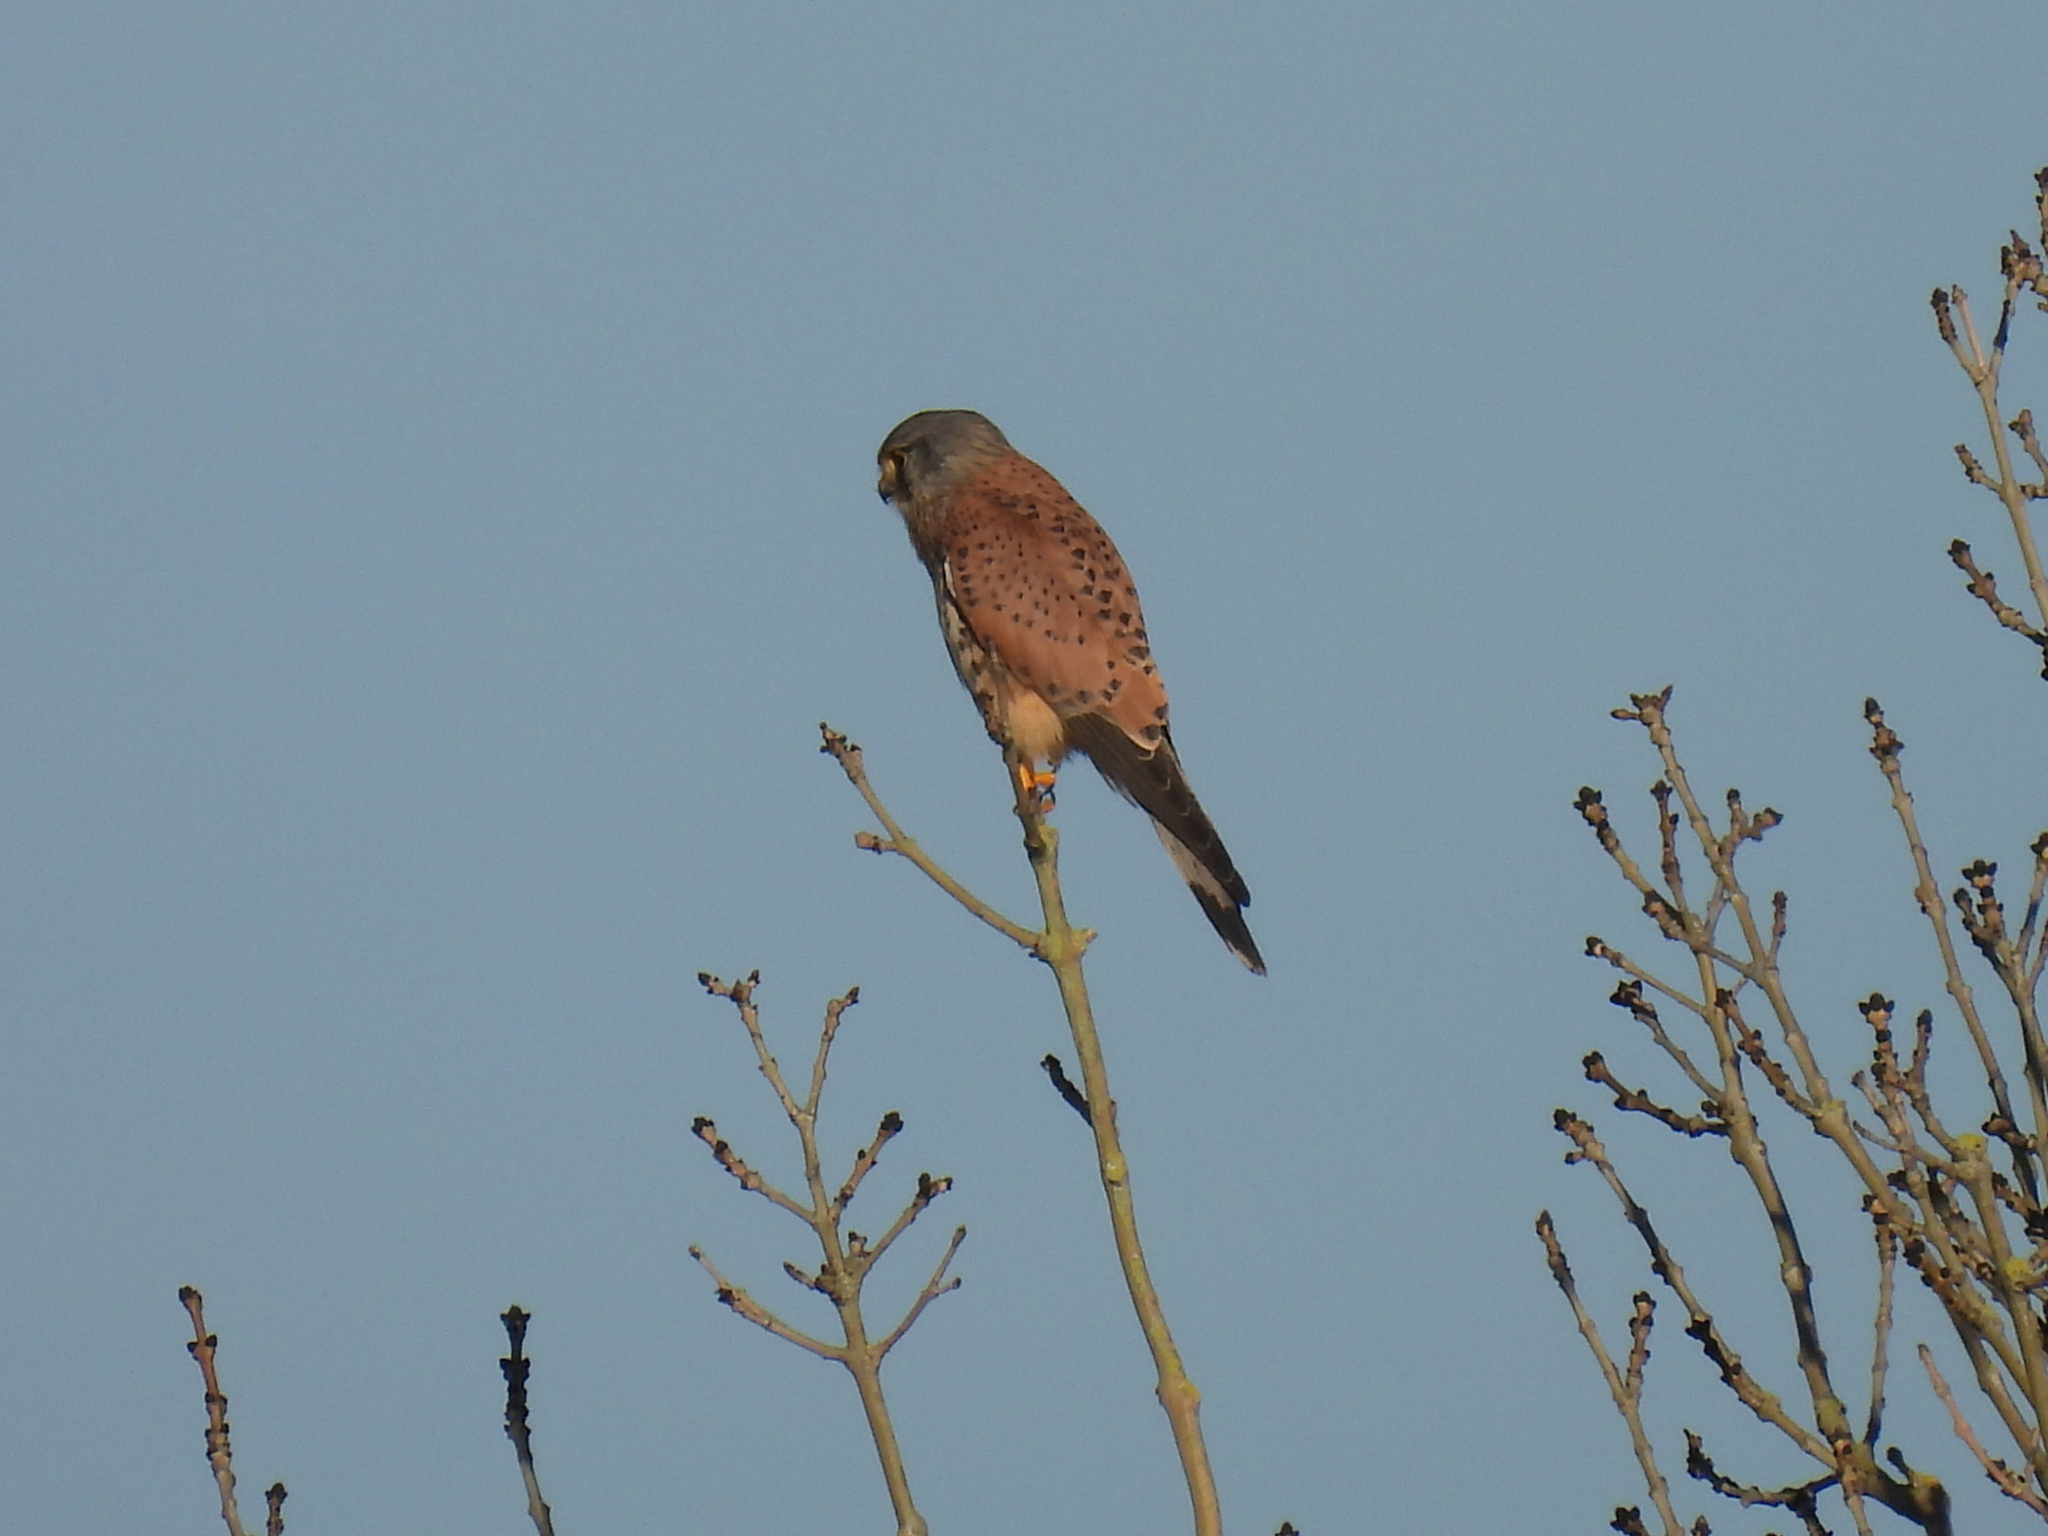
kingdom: Animalia
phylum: Chordata
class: Aves
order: Falconiformes
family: Falconidae
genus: Falco
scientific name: Falco tinnunculus
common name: Common kestrel
